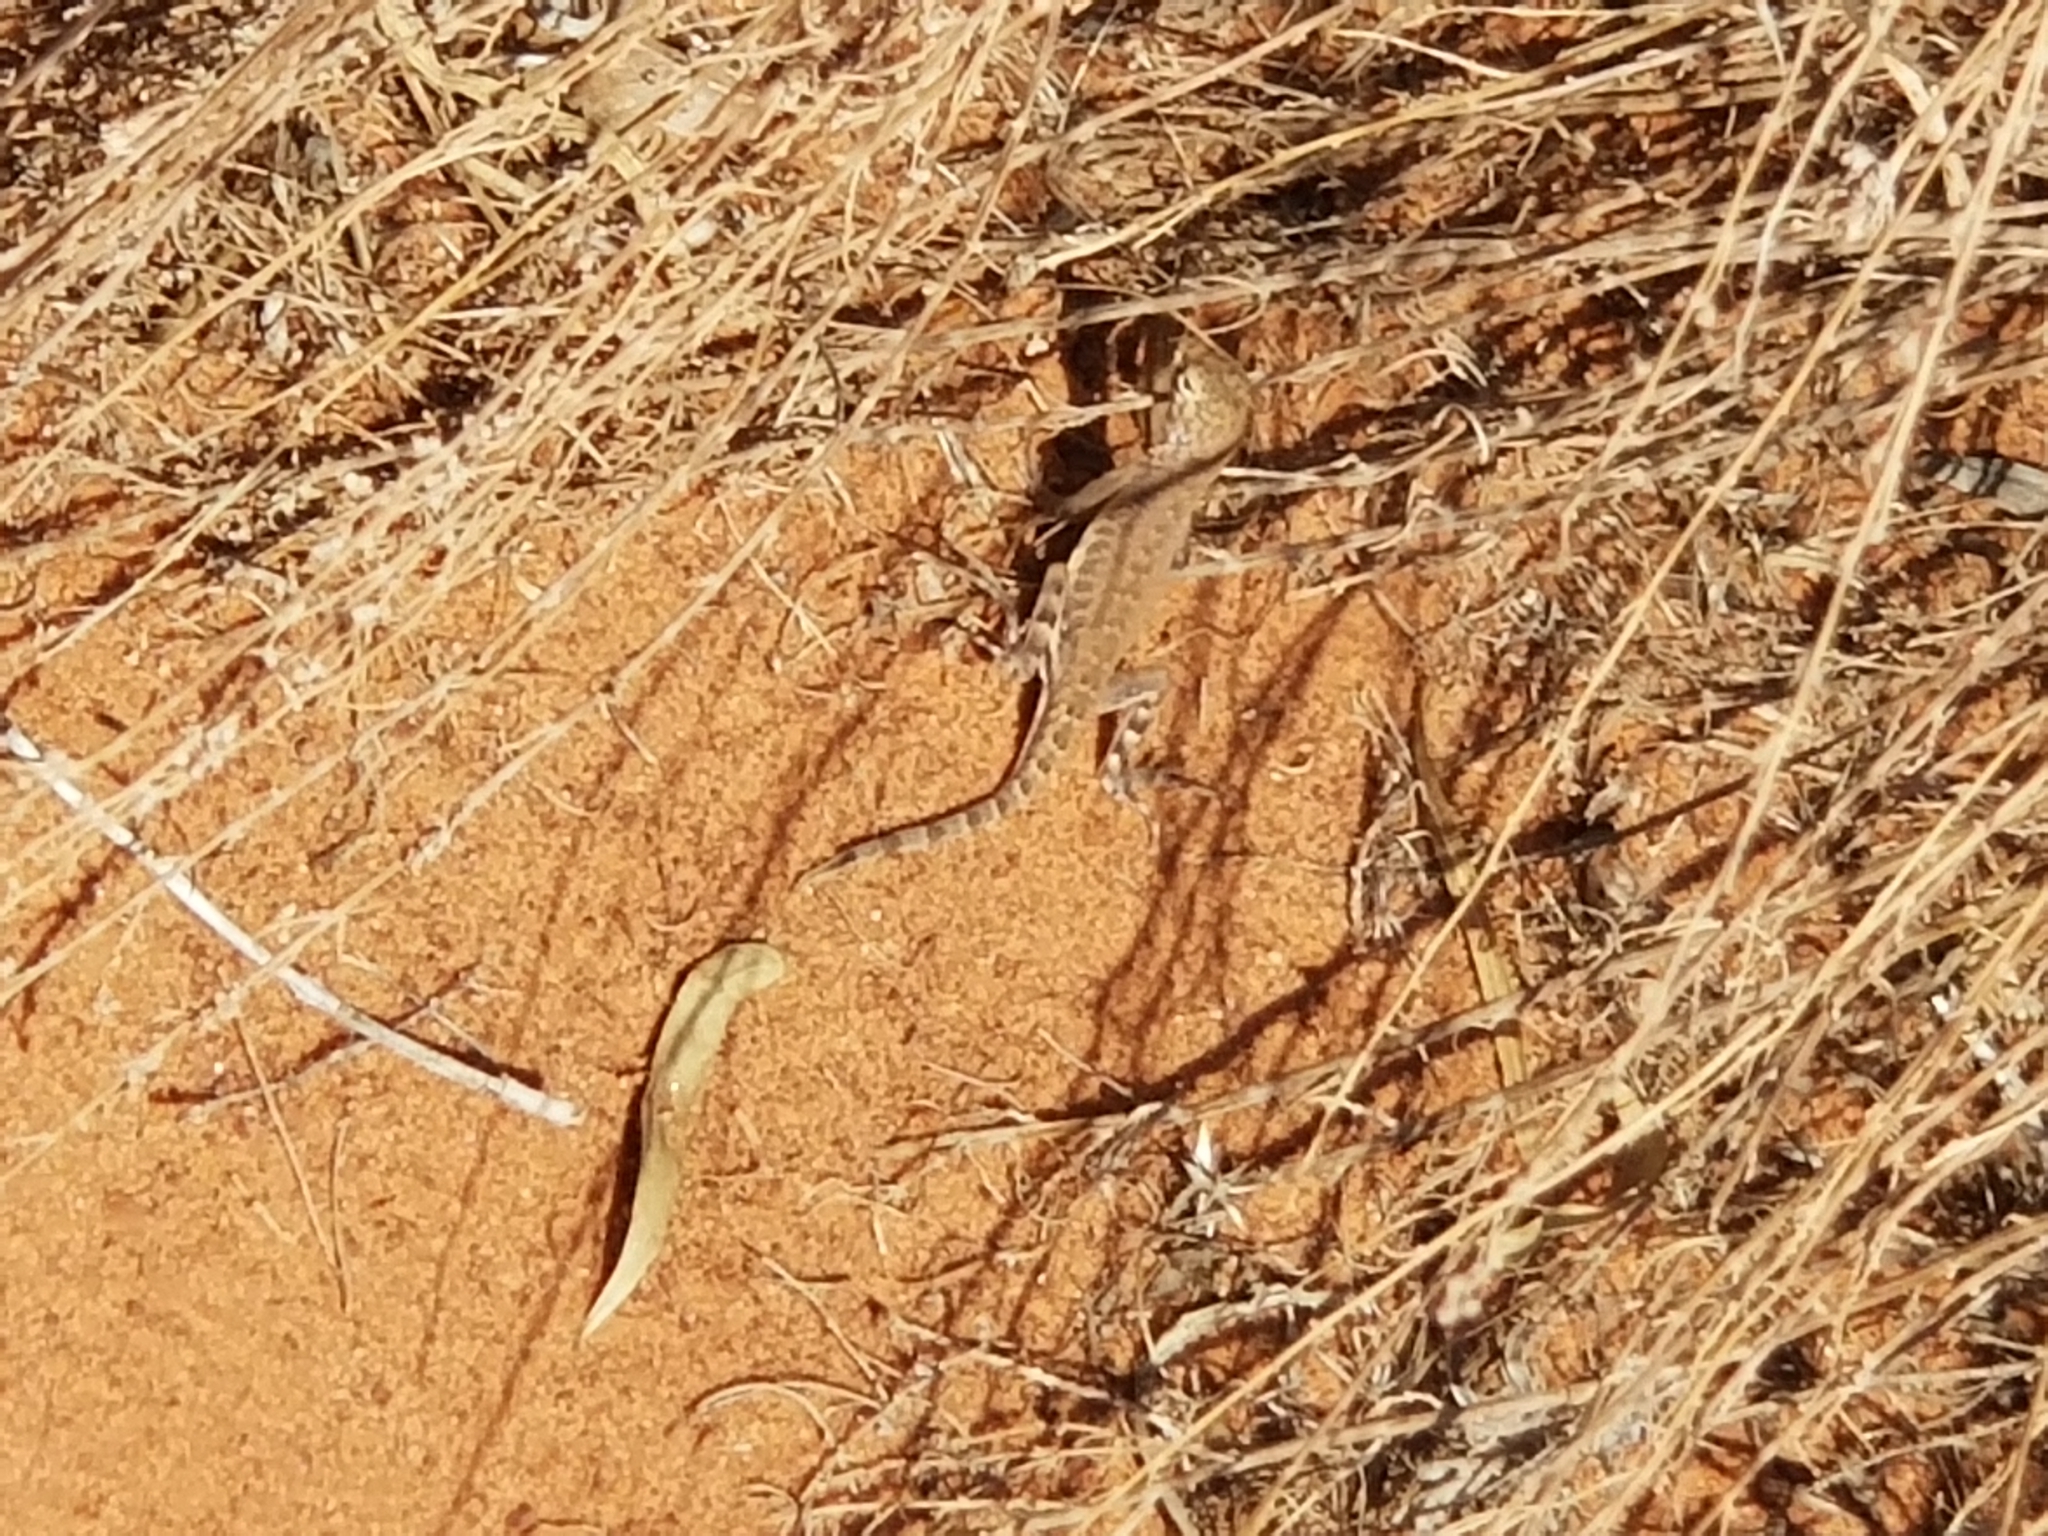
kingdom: Animalia
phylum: Chordata
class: Squamata
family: Phrynosomatidae
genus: Uta
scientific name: Uta stansburiana
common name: Side-blotched lizard
